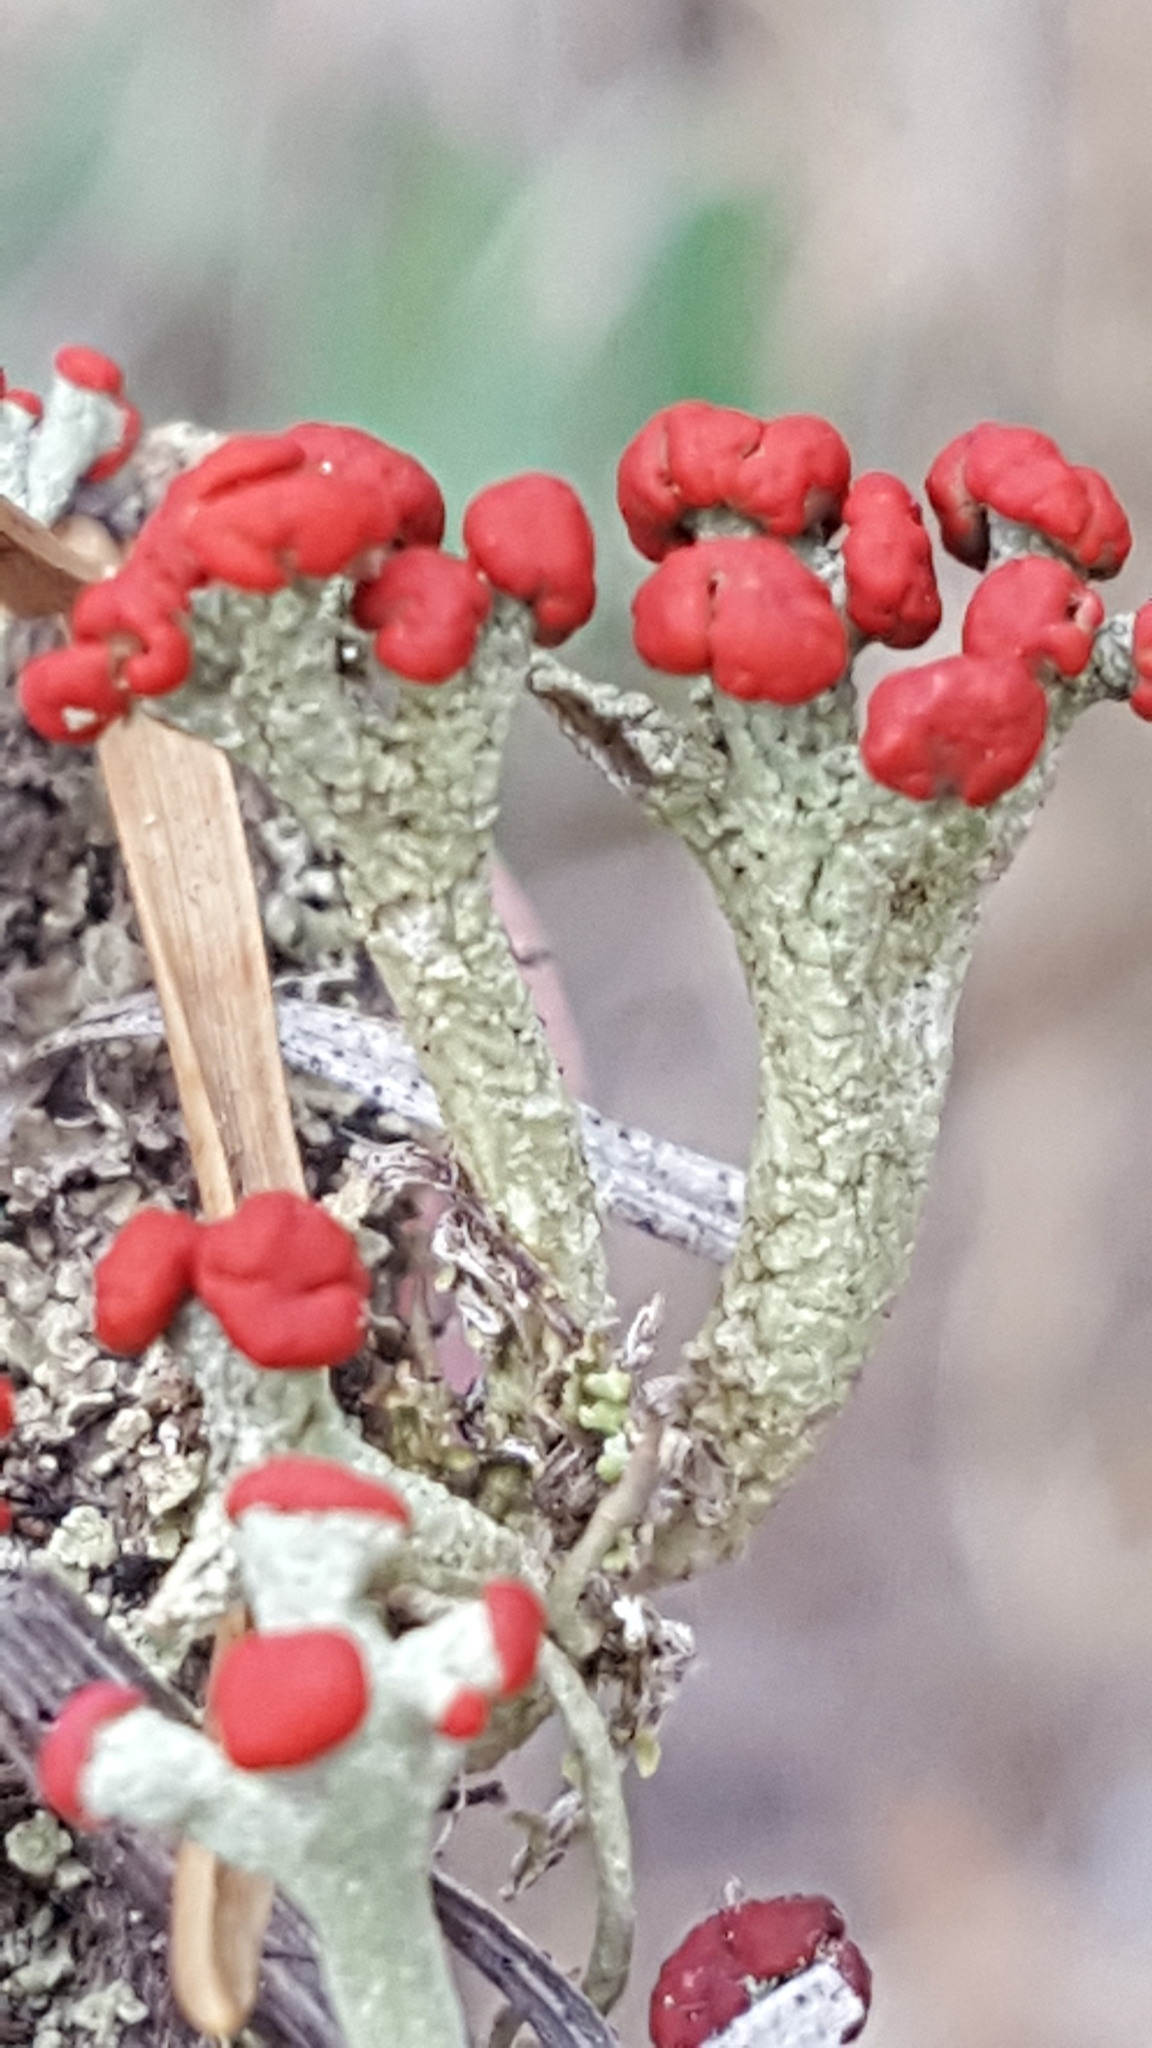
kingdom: Fungi
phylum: Ascomycota
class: Lecanoromycetes
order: Lecanorales
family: Cladoniaceae
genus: Cladonia
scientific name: Cladonia cristatella
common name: British soldier lichen
